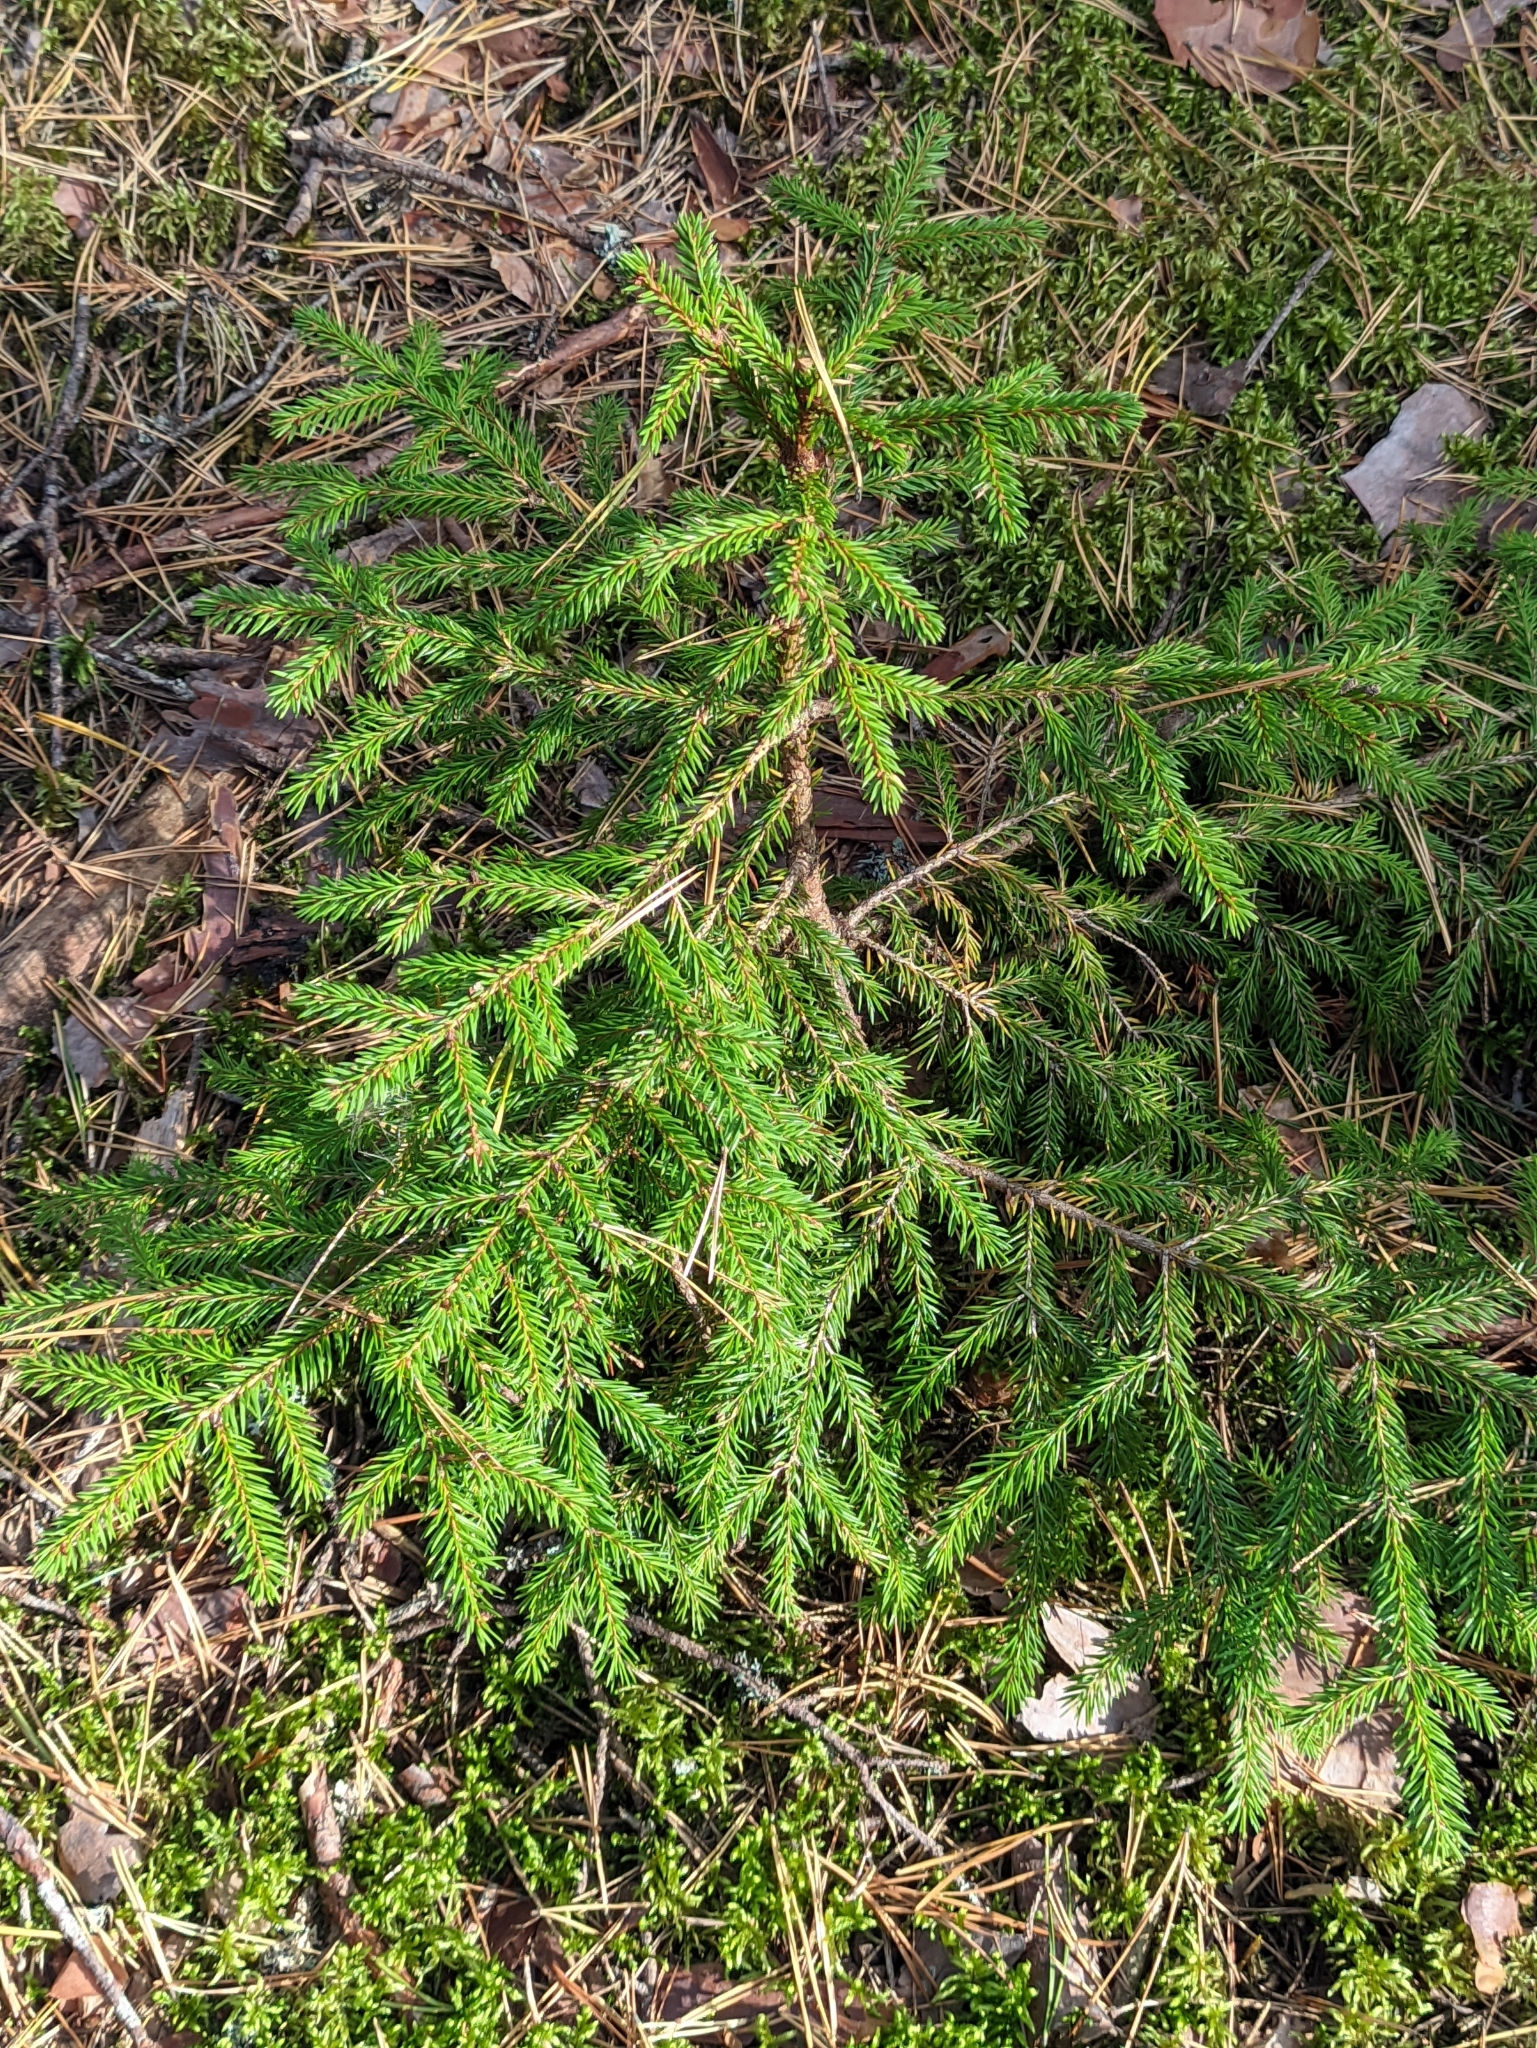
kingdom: Plantae
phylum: Tracheophyta
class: Pinopsida
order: Pinales
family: Pinaceae
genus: Picea
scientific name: Picea abies
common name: Norway spruce
